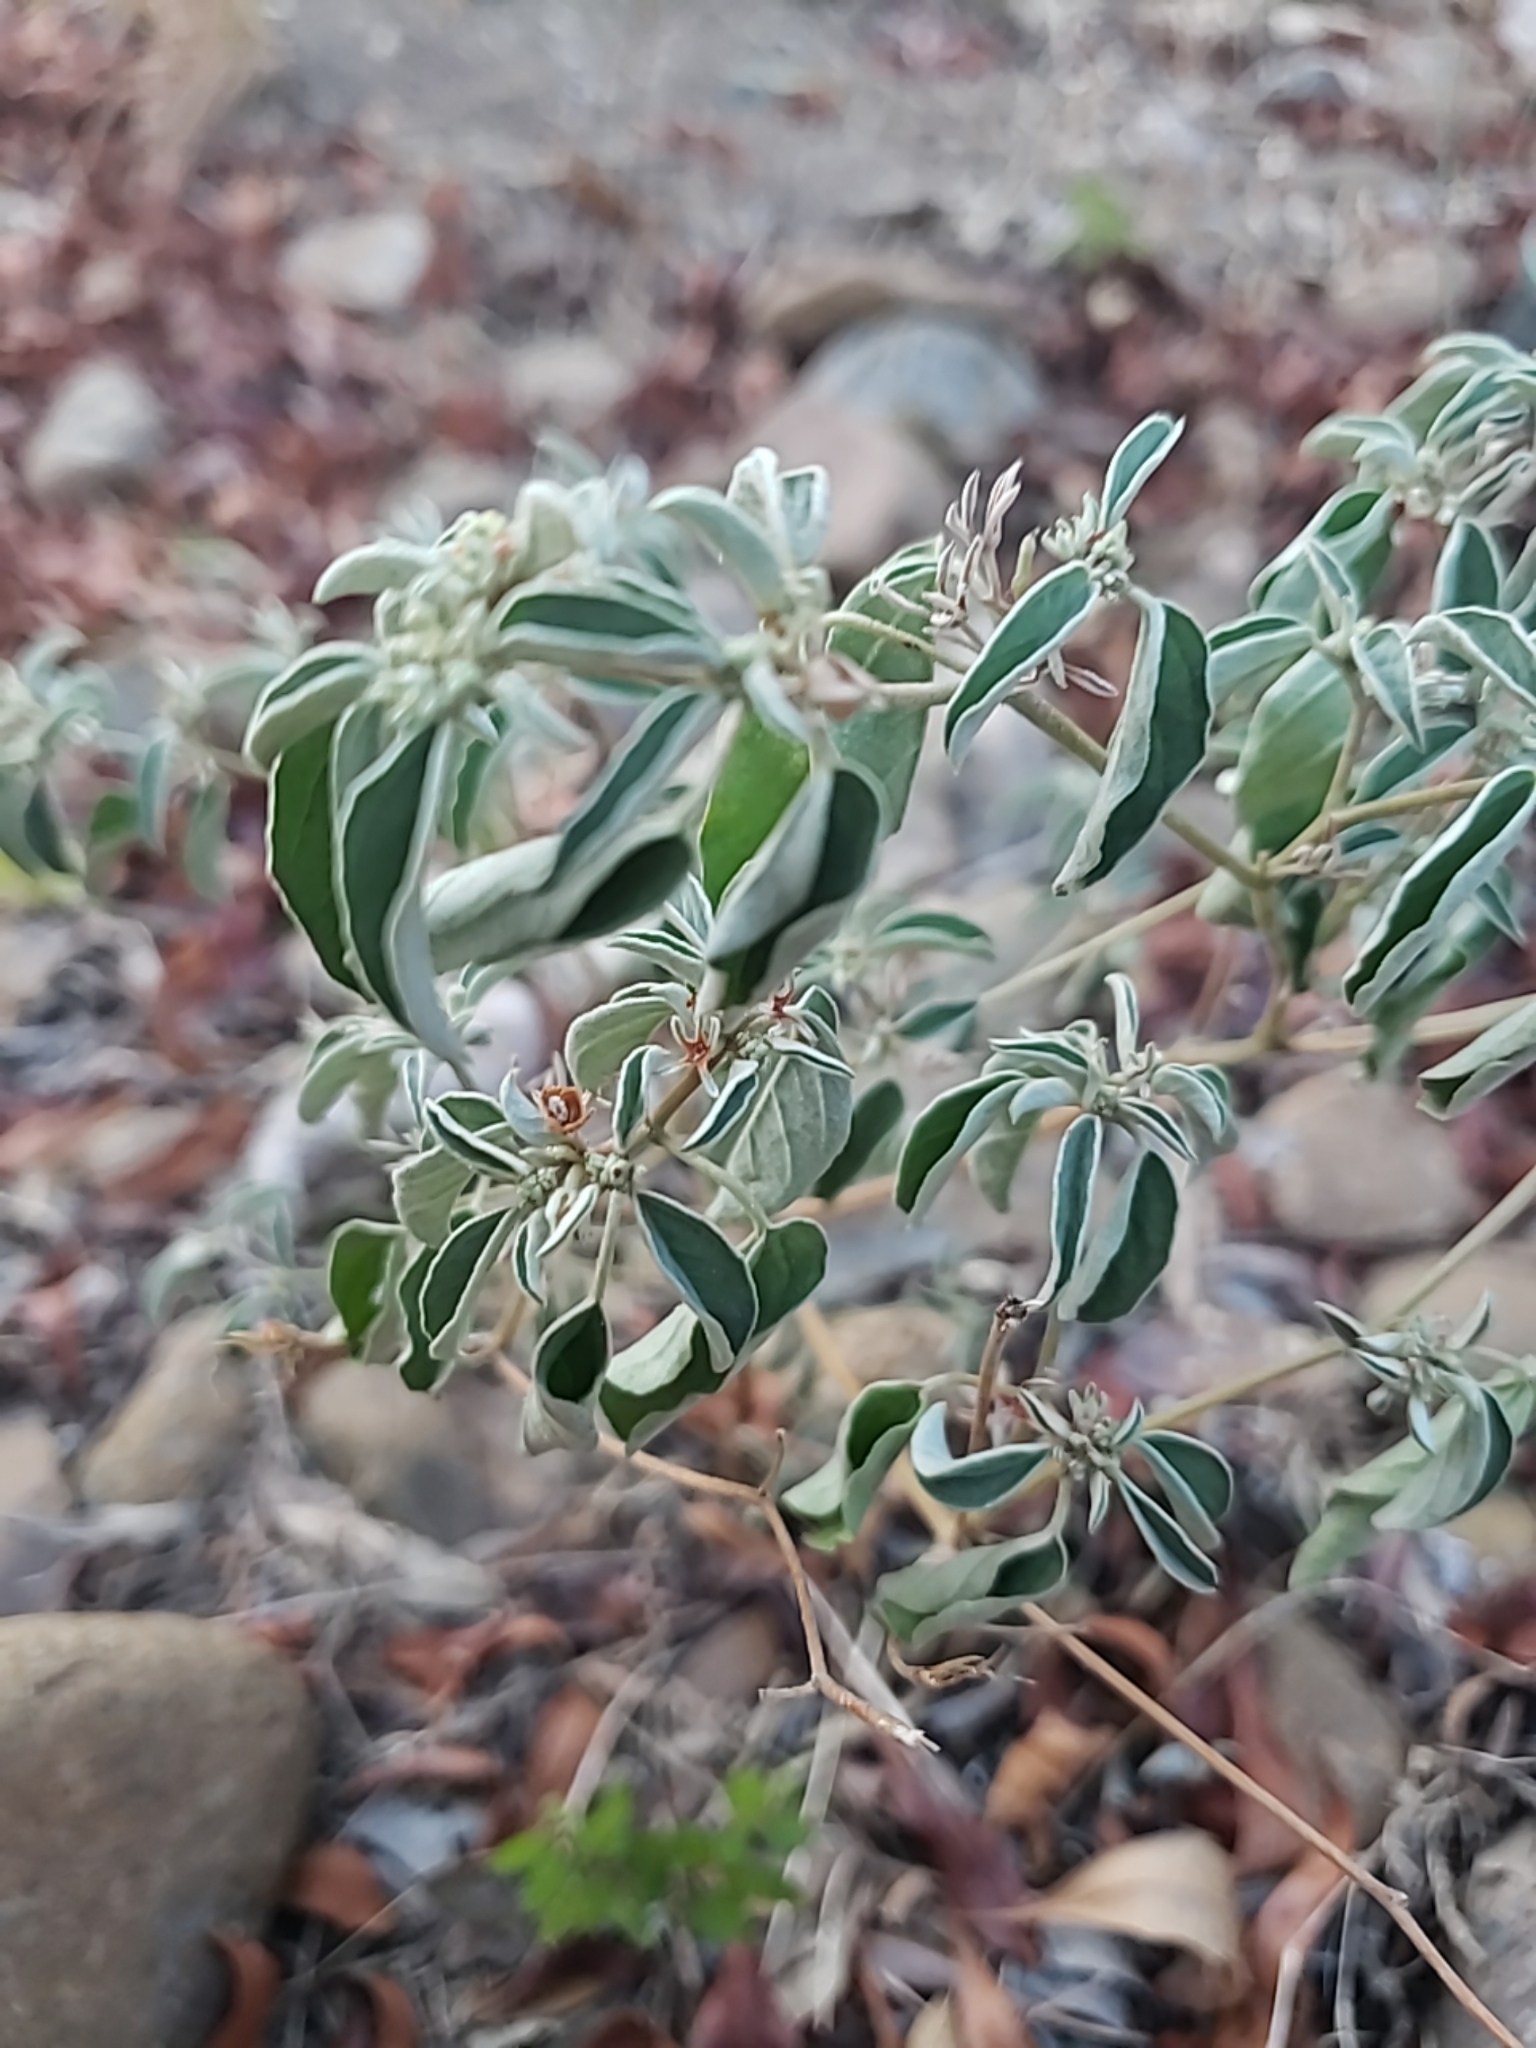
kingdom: Plantae
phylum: Tracheophyta
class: Magnoliopsida
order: Malpighiales
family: Euphorbiaceae
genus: Croton
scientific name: Croton monanthogynus
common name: One-seed croton
